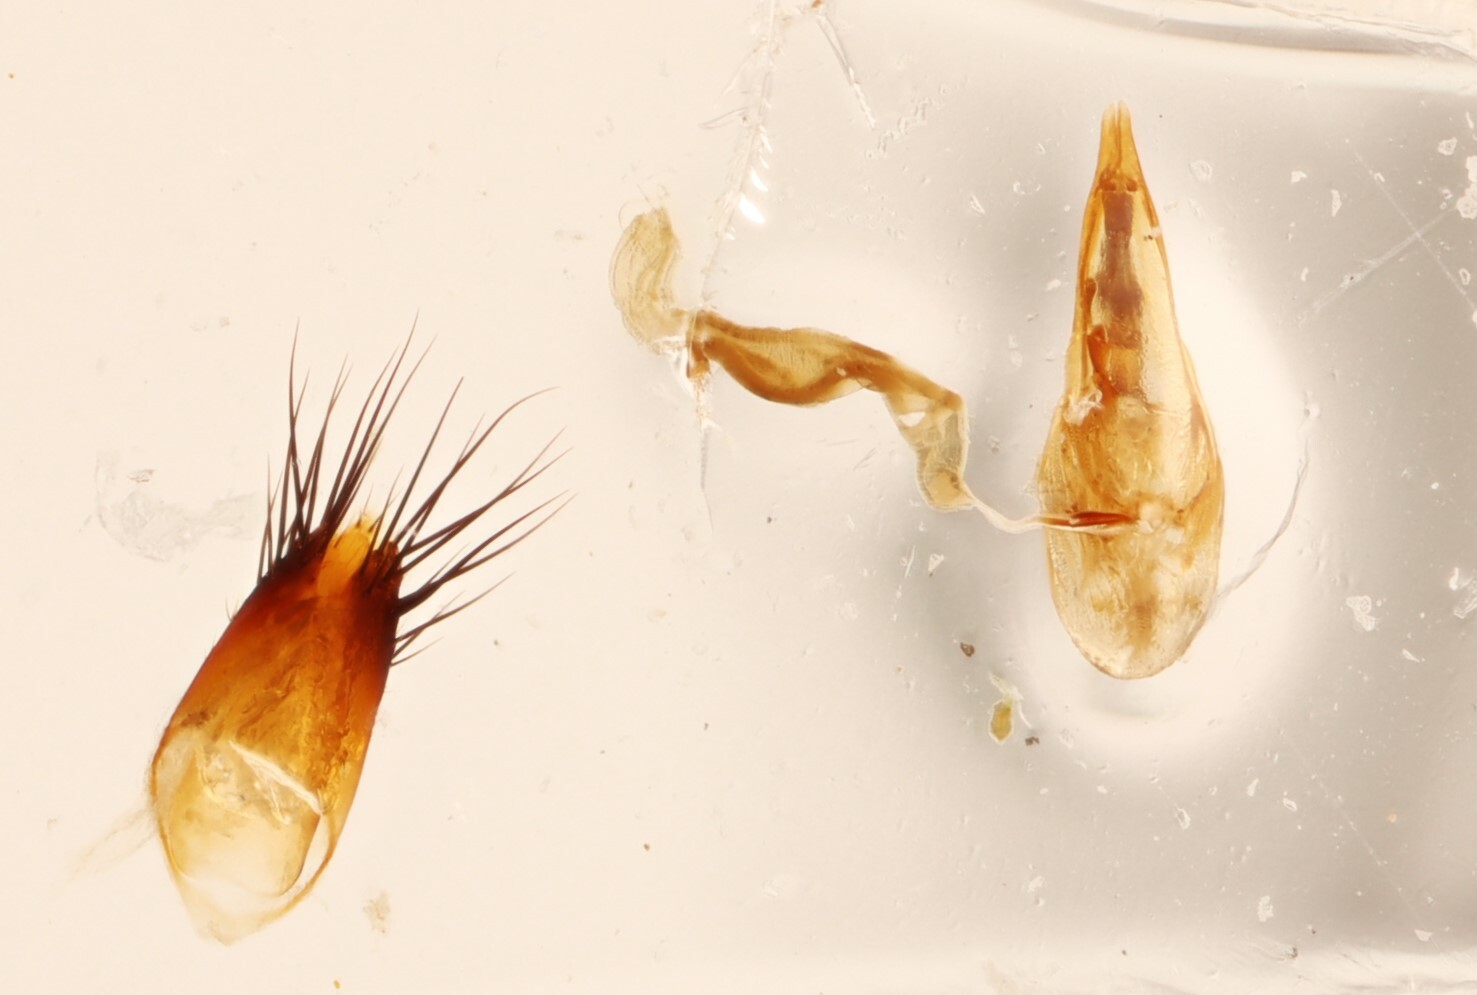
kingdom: Animalia
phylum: Arthropoda
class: Insecta
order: Coleoptera
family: Staphylinidae
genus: Sepedophilus
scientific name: Sepedophilus basalis
